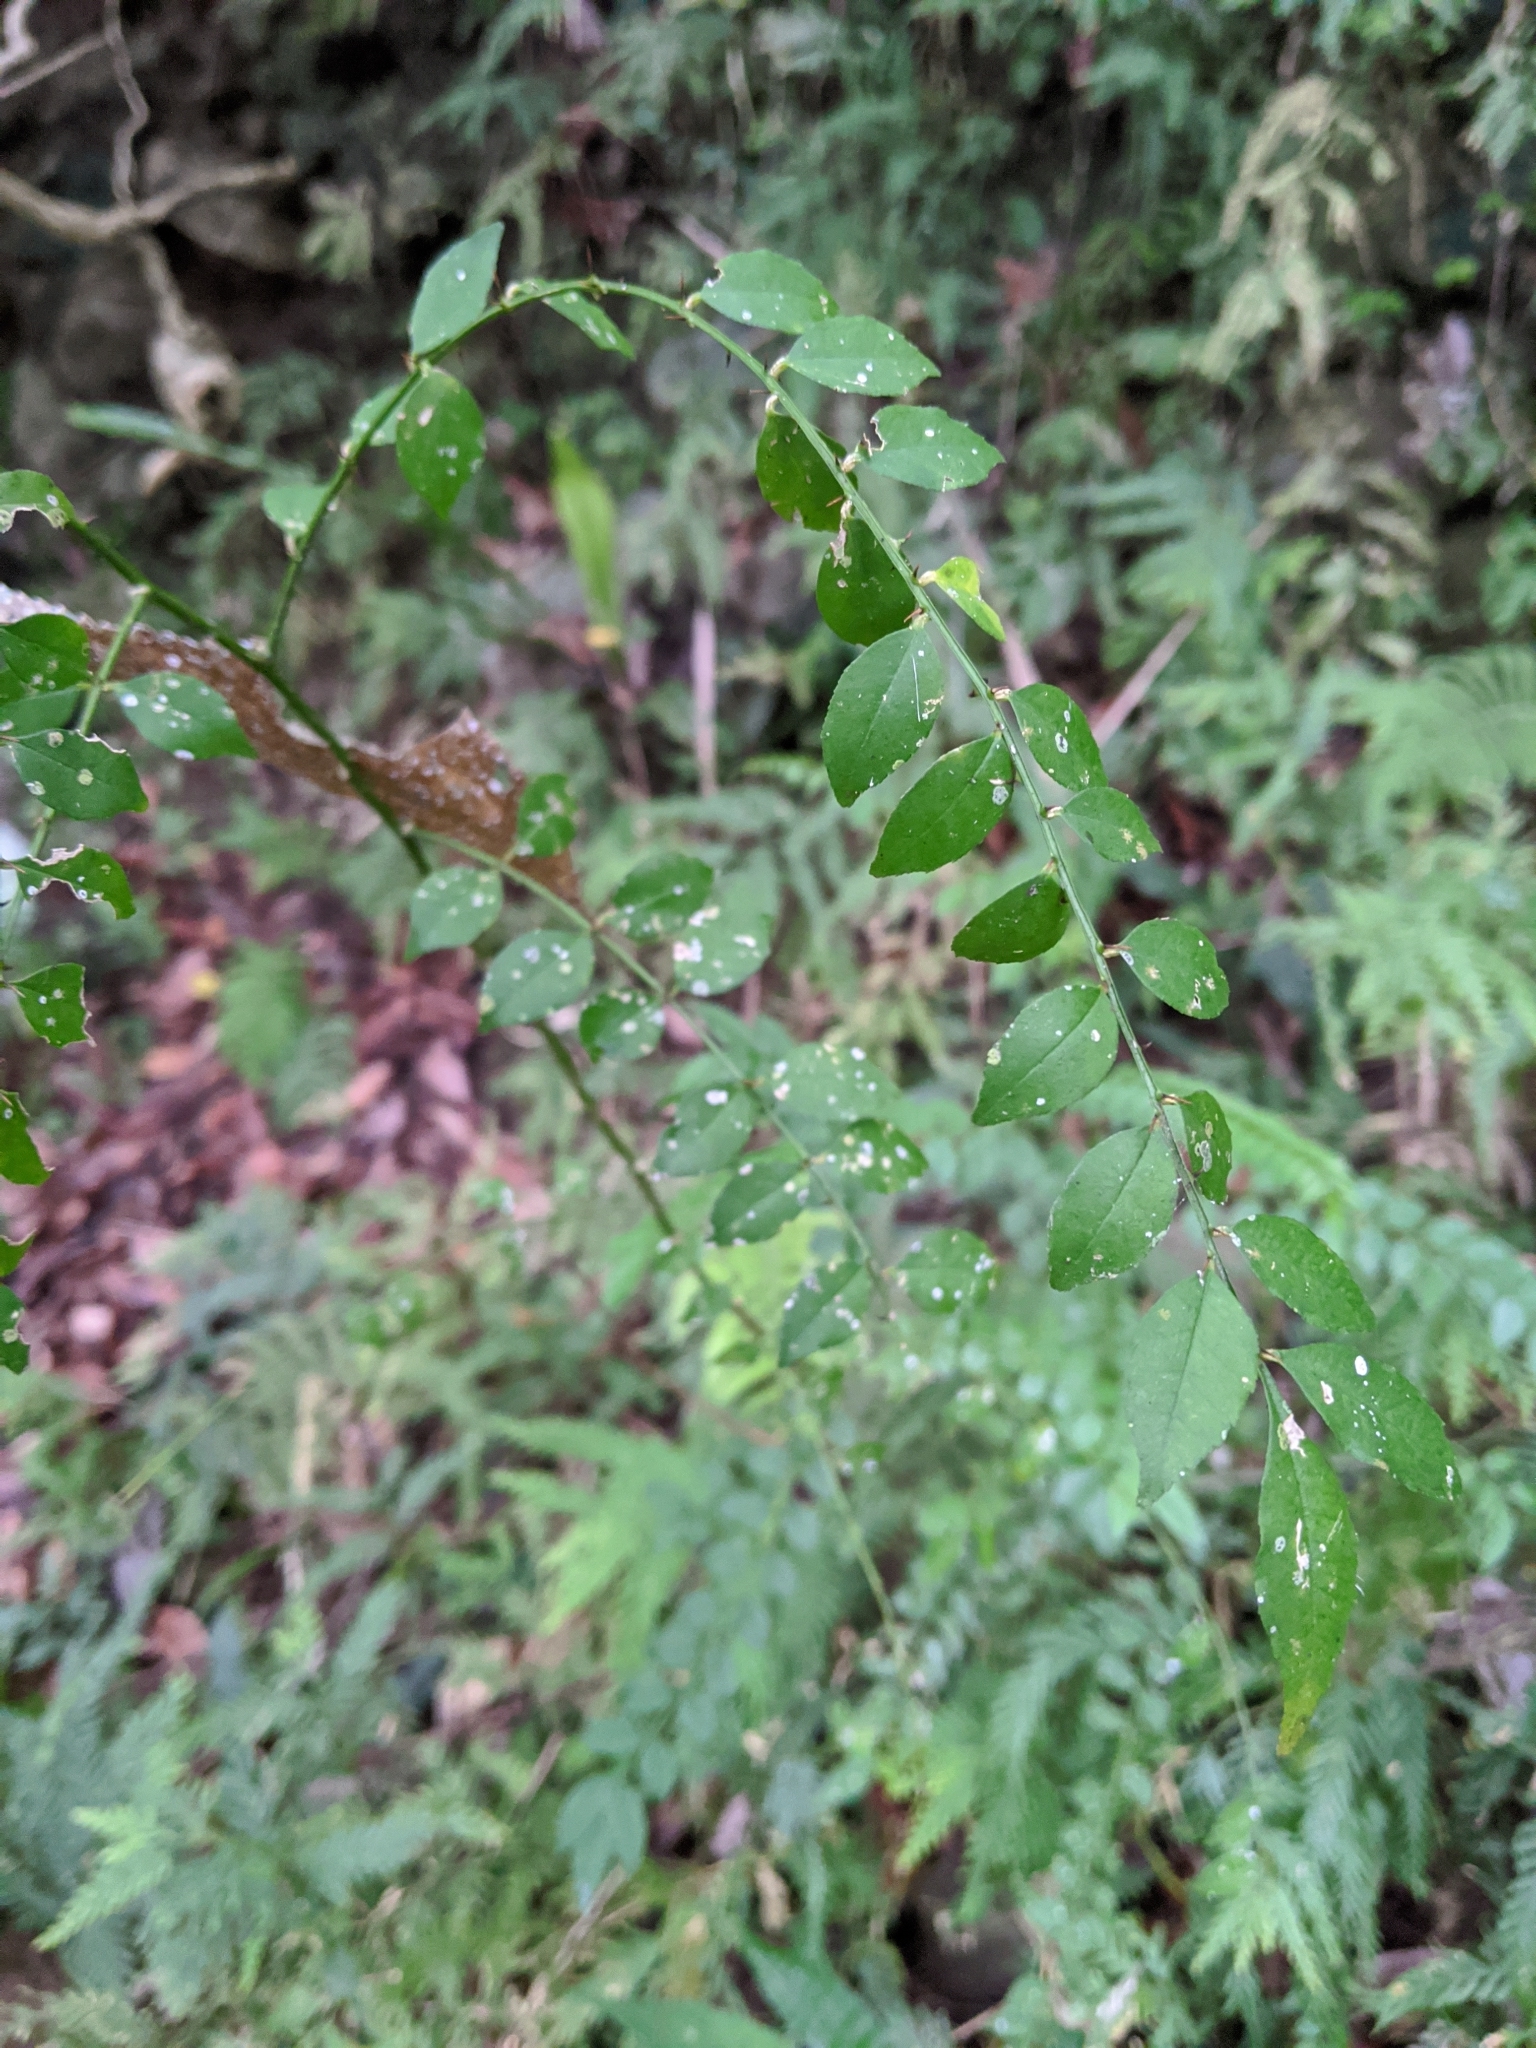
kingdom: Plantae
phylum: Tracheophyta
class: Magnoliopsida
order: Sapindales
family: Rutaceae
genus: Zanthoxylum
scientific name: Zanthoxylum scandens
